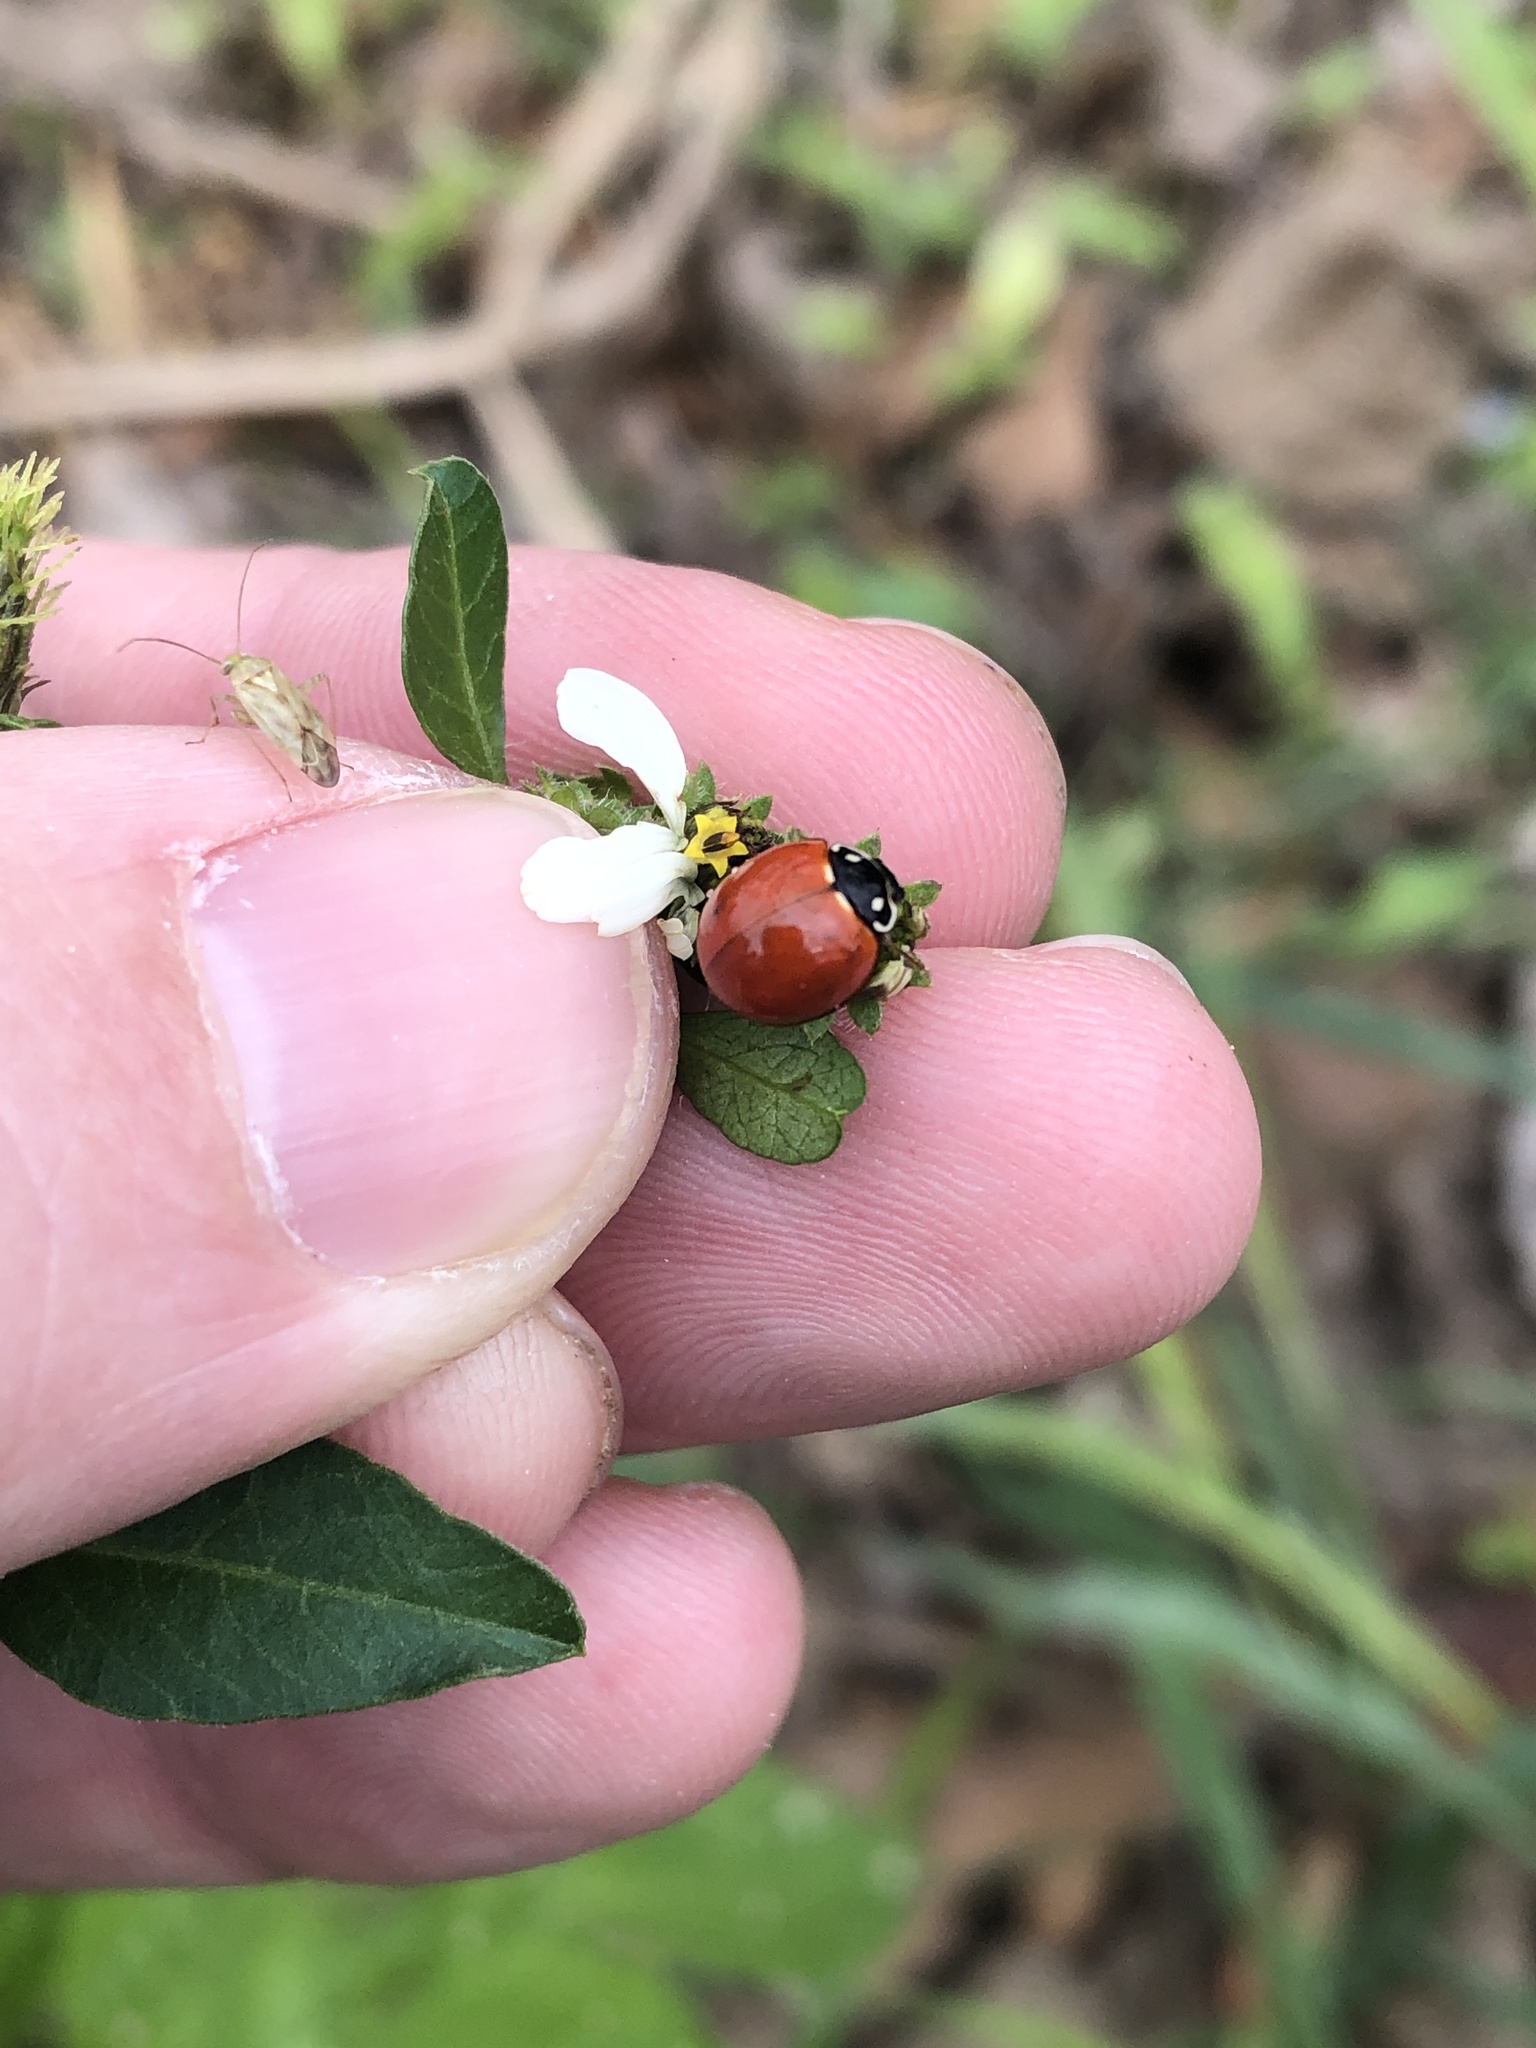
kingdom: Animalia
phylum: Arthropoda
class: Insecta
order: Coleoptera
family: Coccinellidae
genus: Cycloneda
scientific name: Cycloneda sanguinea
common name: Ladybird beetle
